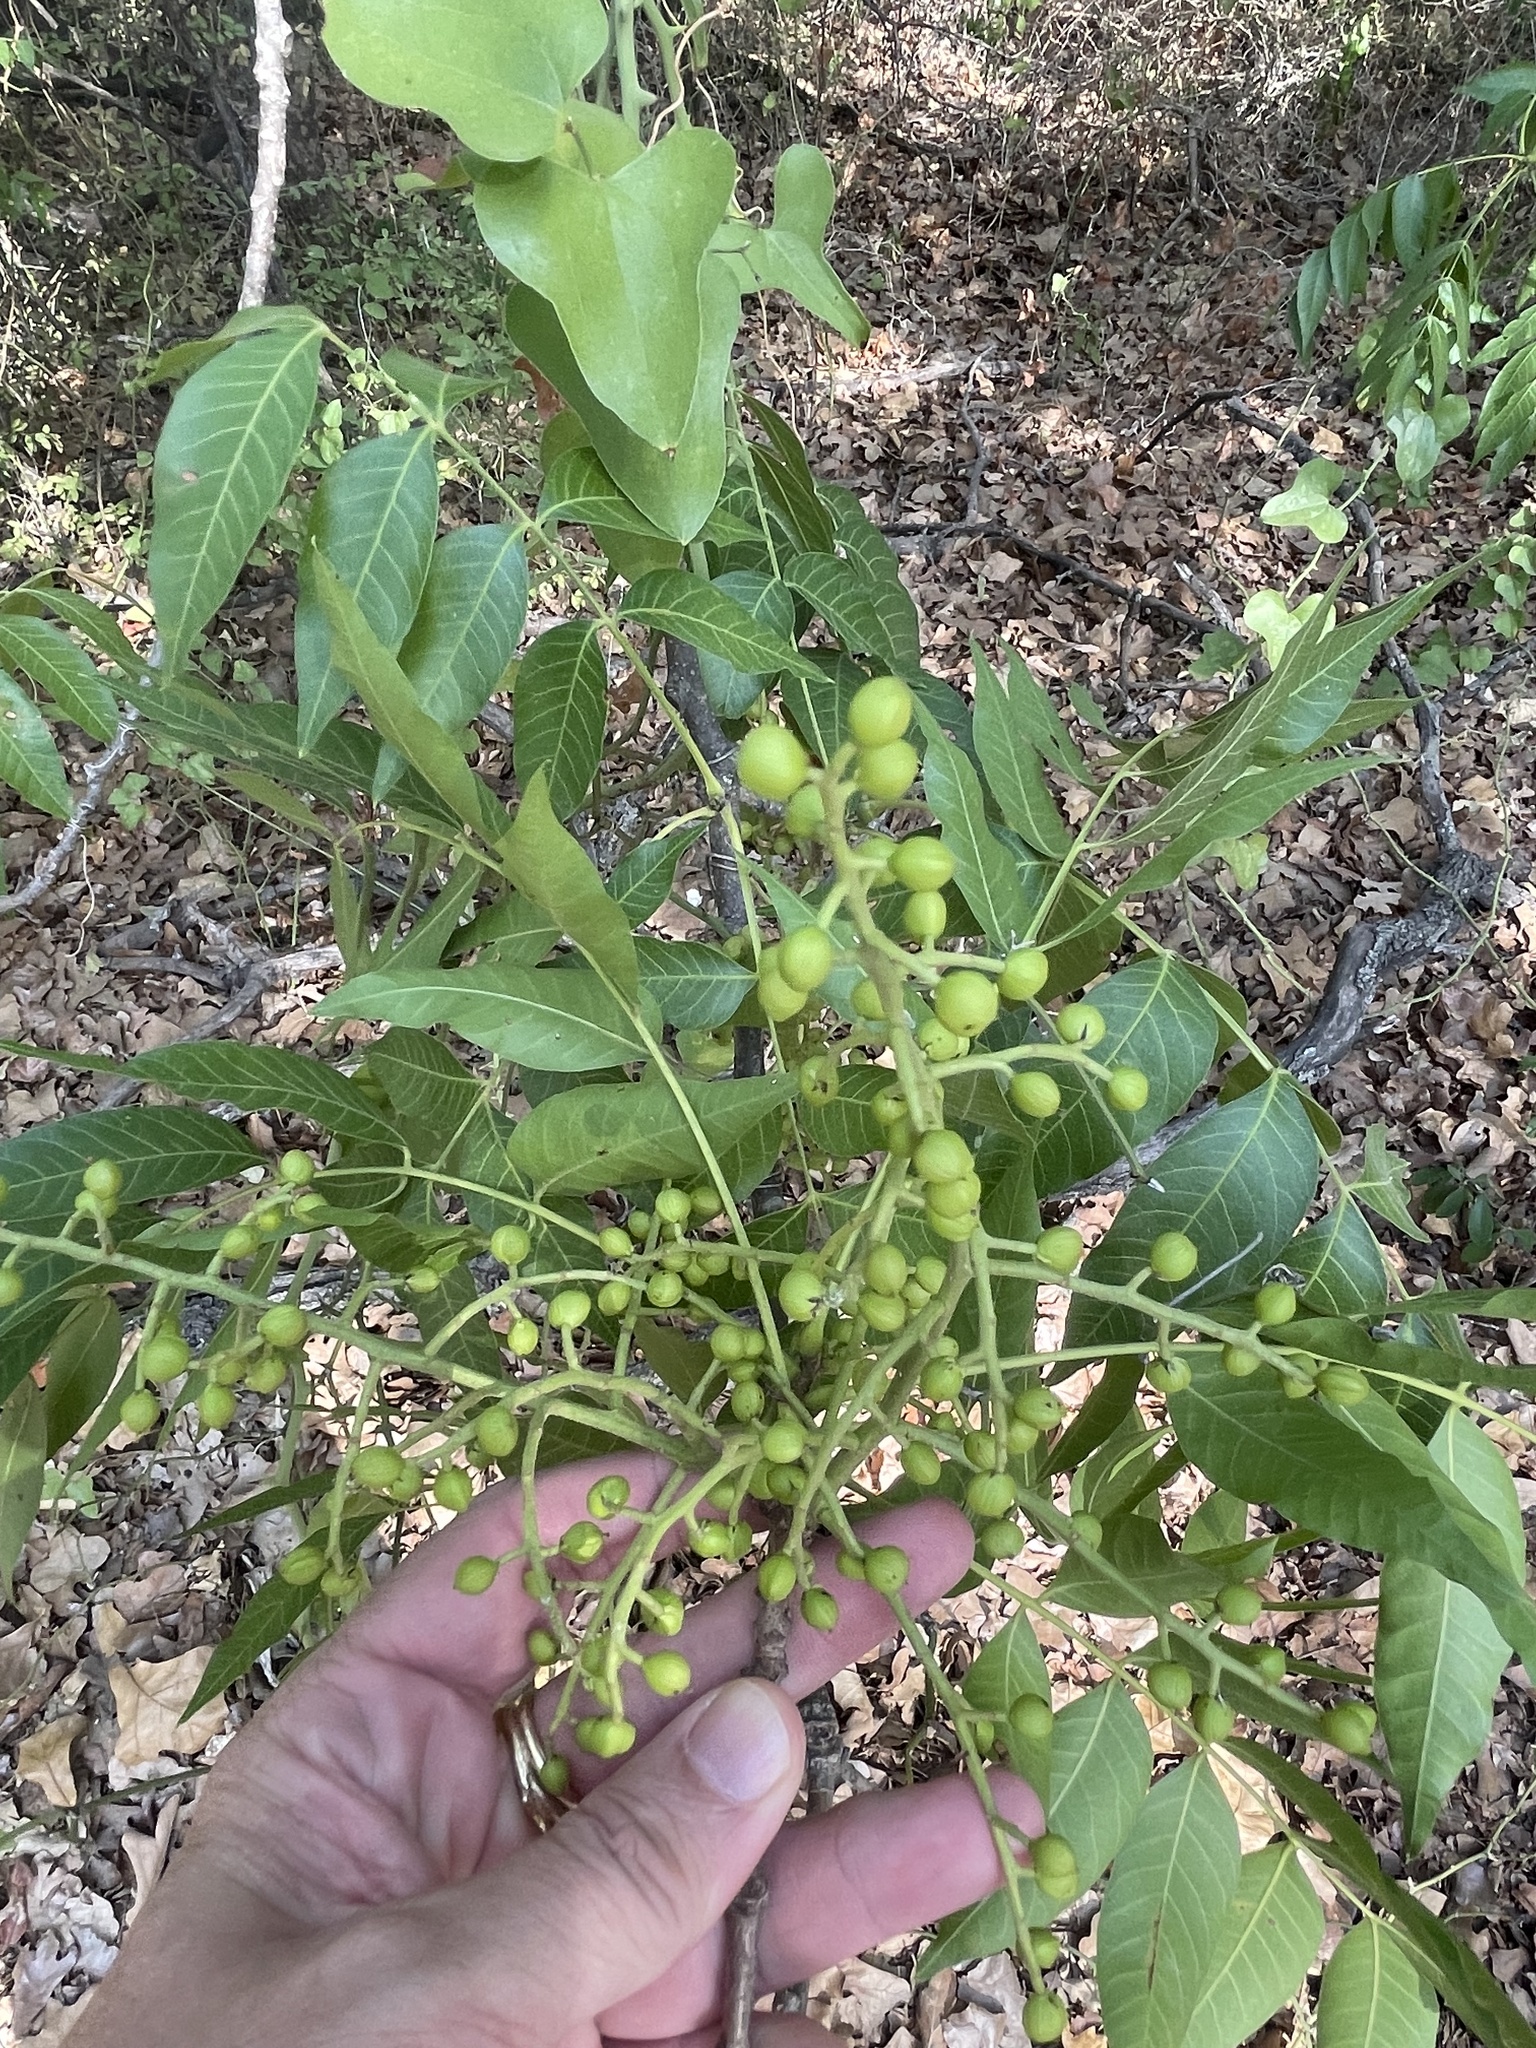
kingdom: Plantae
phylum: Tracheophyta
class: Magnoliopsida
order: Sapindales
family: Anacardiaceae
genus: Pistacia
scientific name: Pistacia chinensis
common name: Chinese pistache
